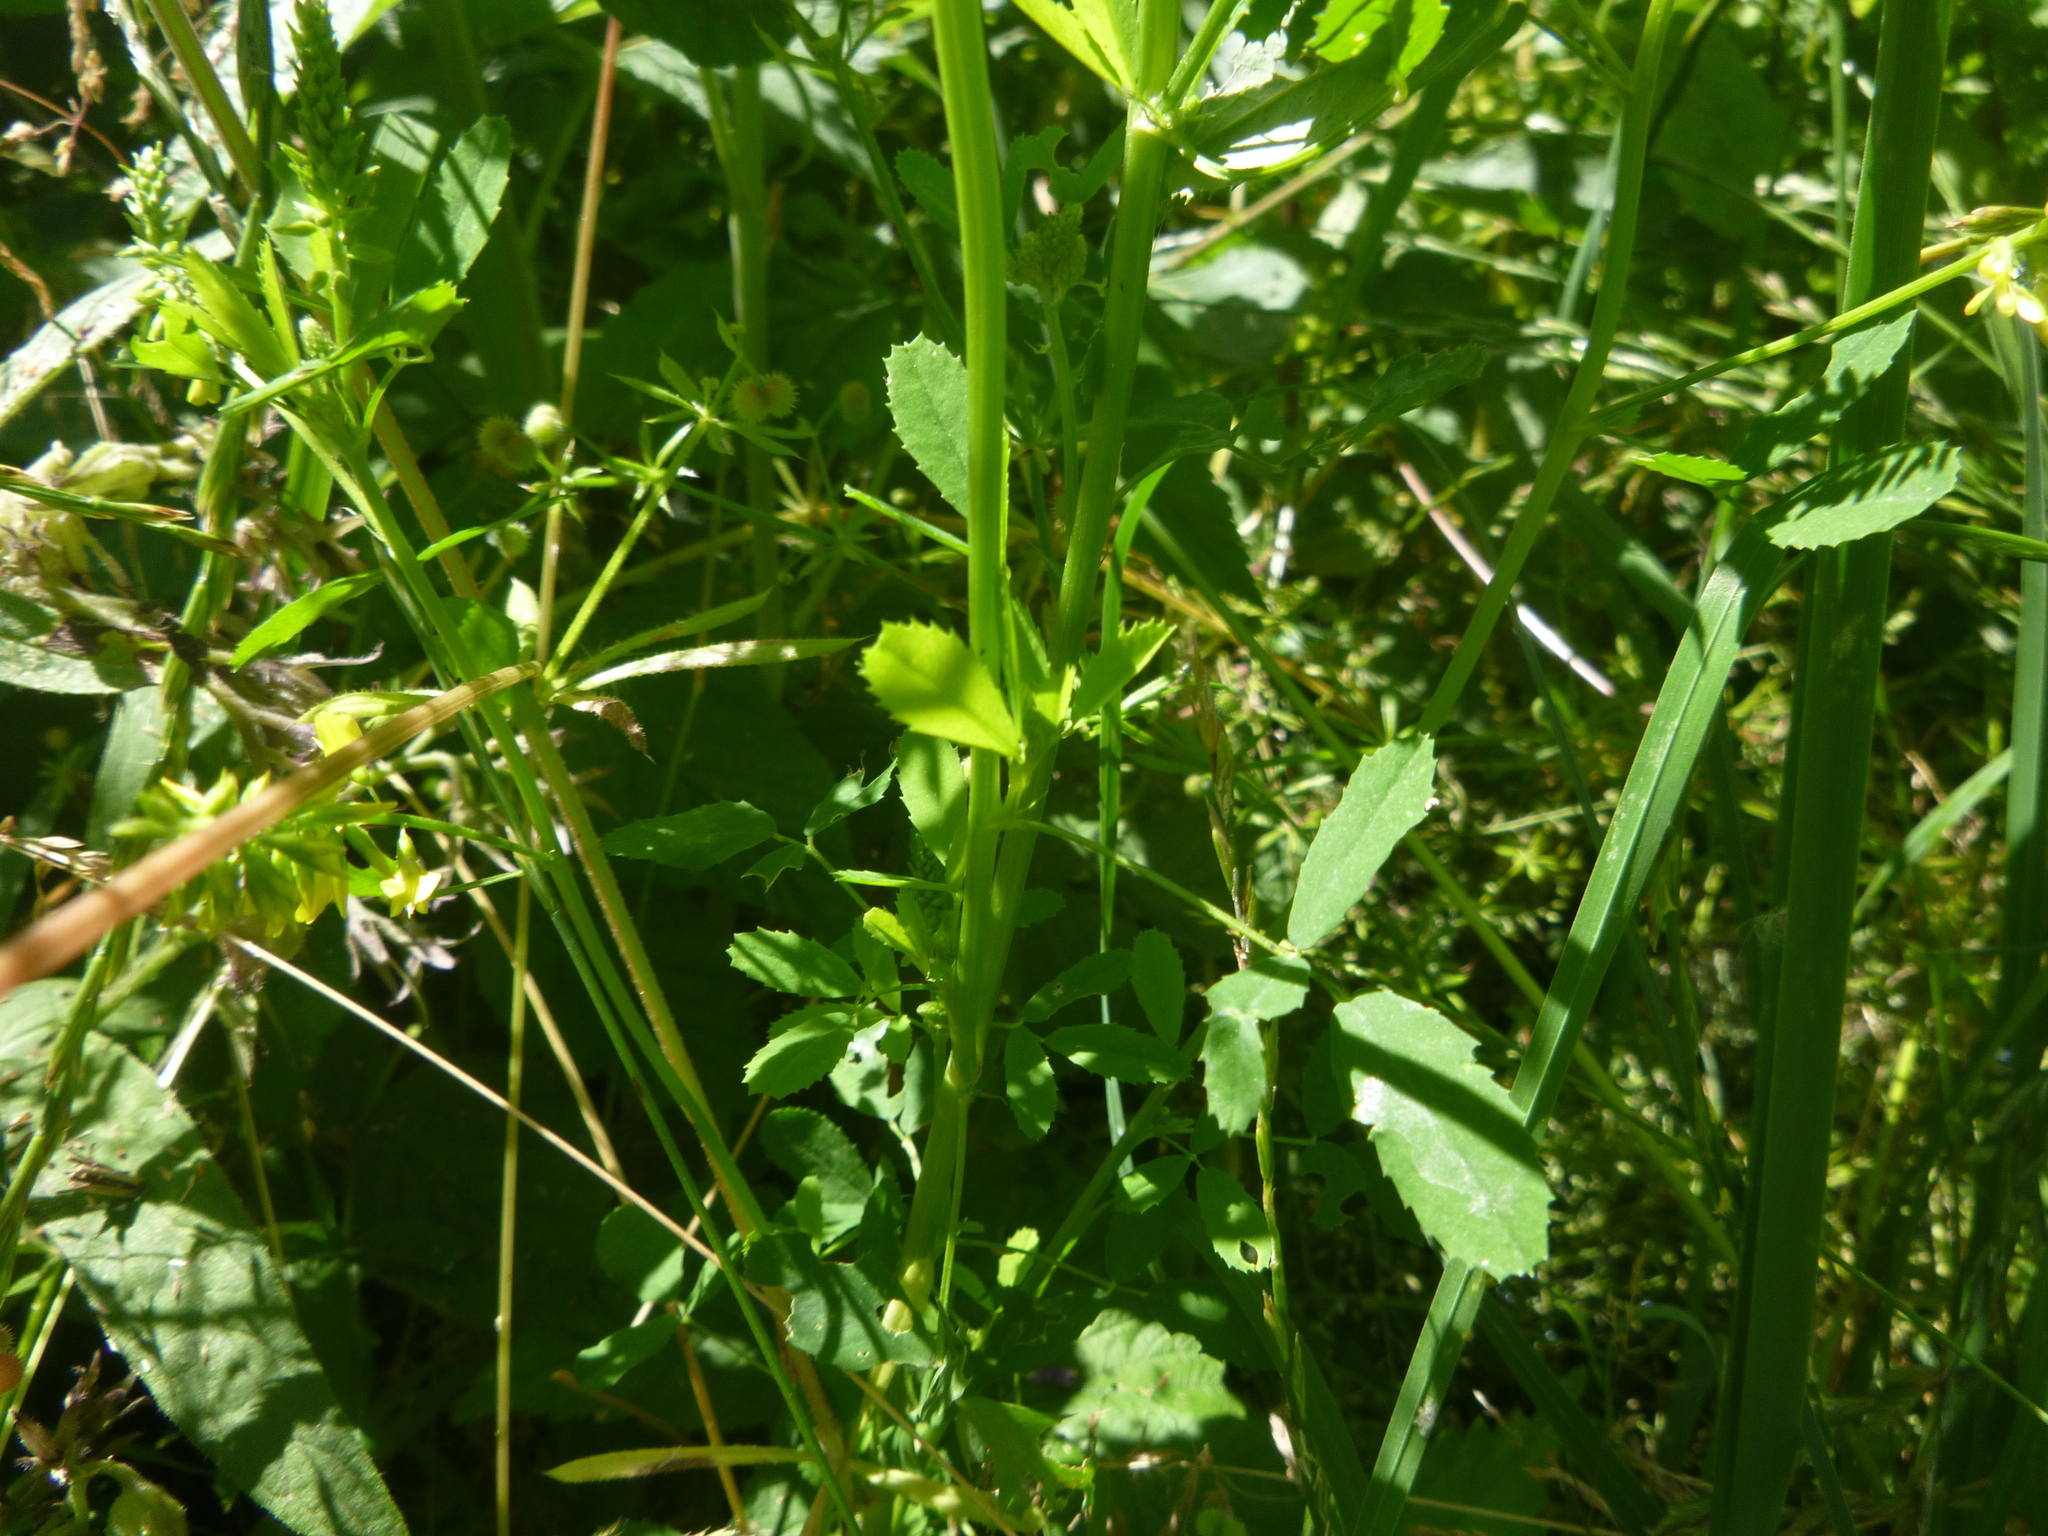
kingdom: Plantae
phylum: Tracheophyta
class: Magnoliopsida
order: Fabales
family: Fabaceae
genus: Melilotus
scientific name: Melilotus officinalis
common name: Sweetclover
